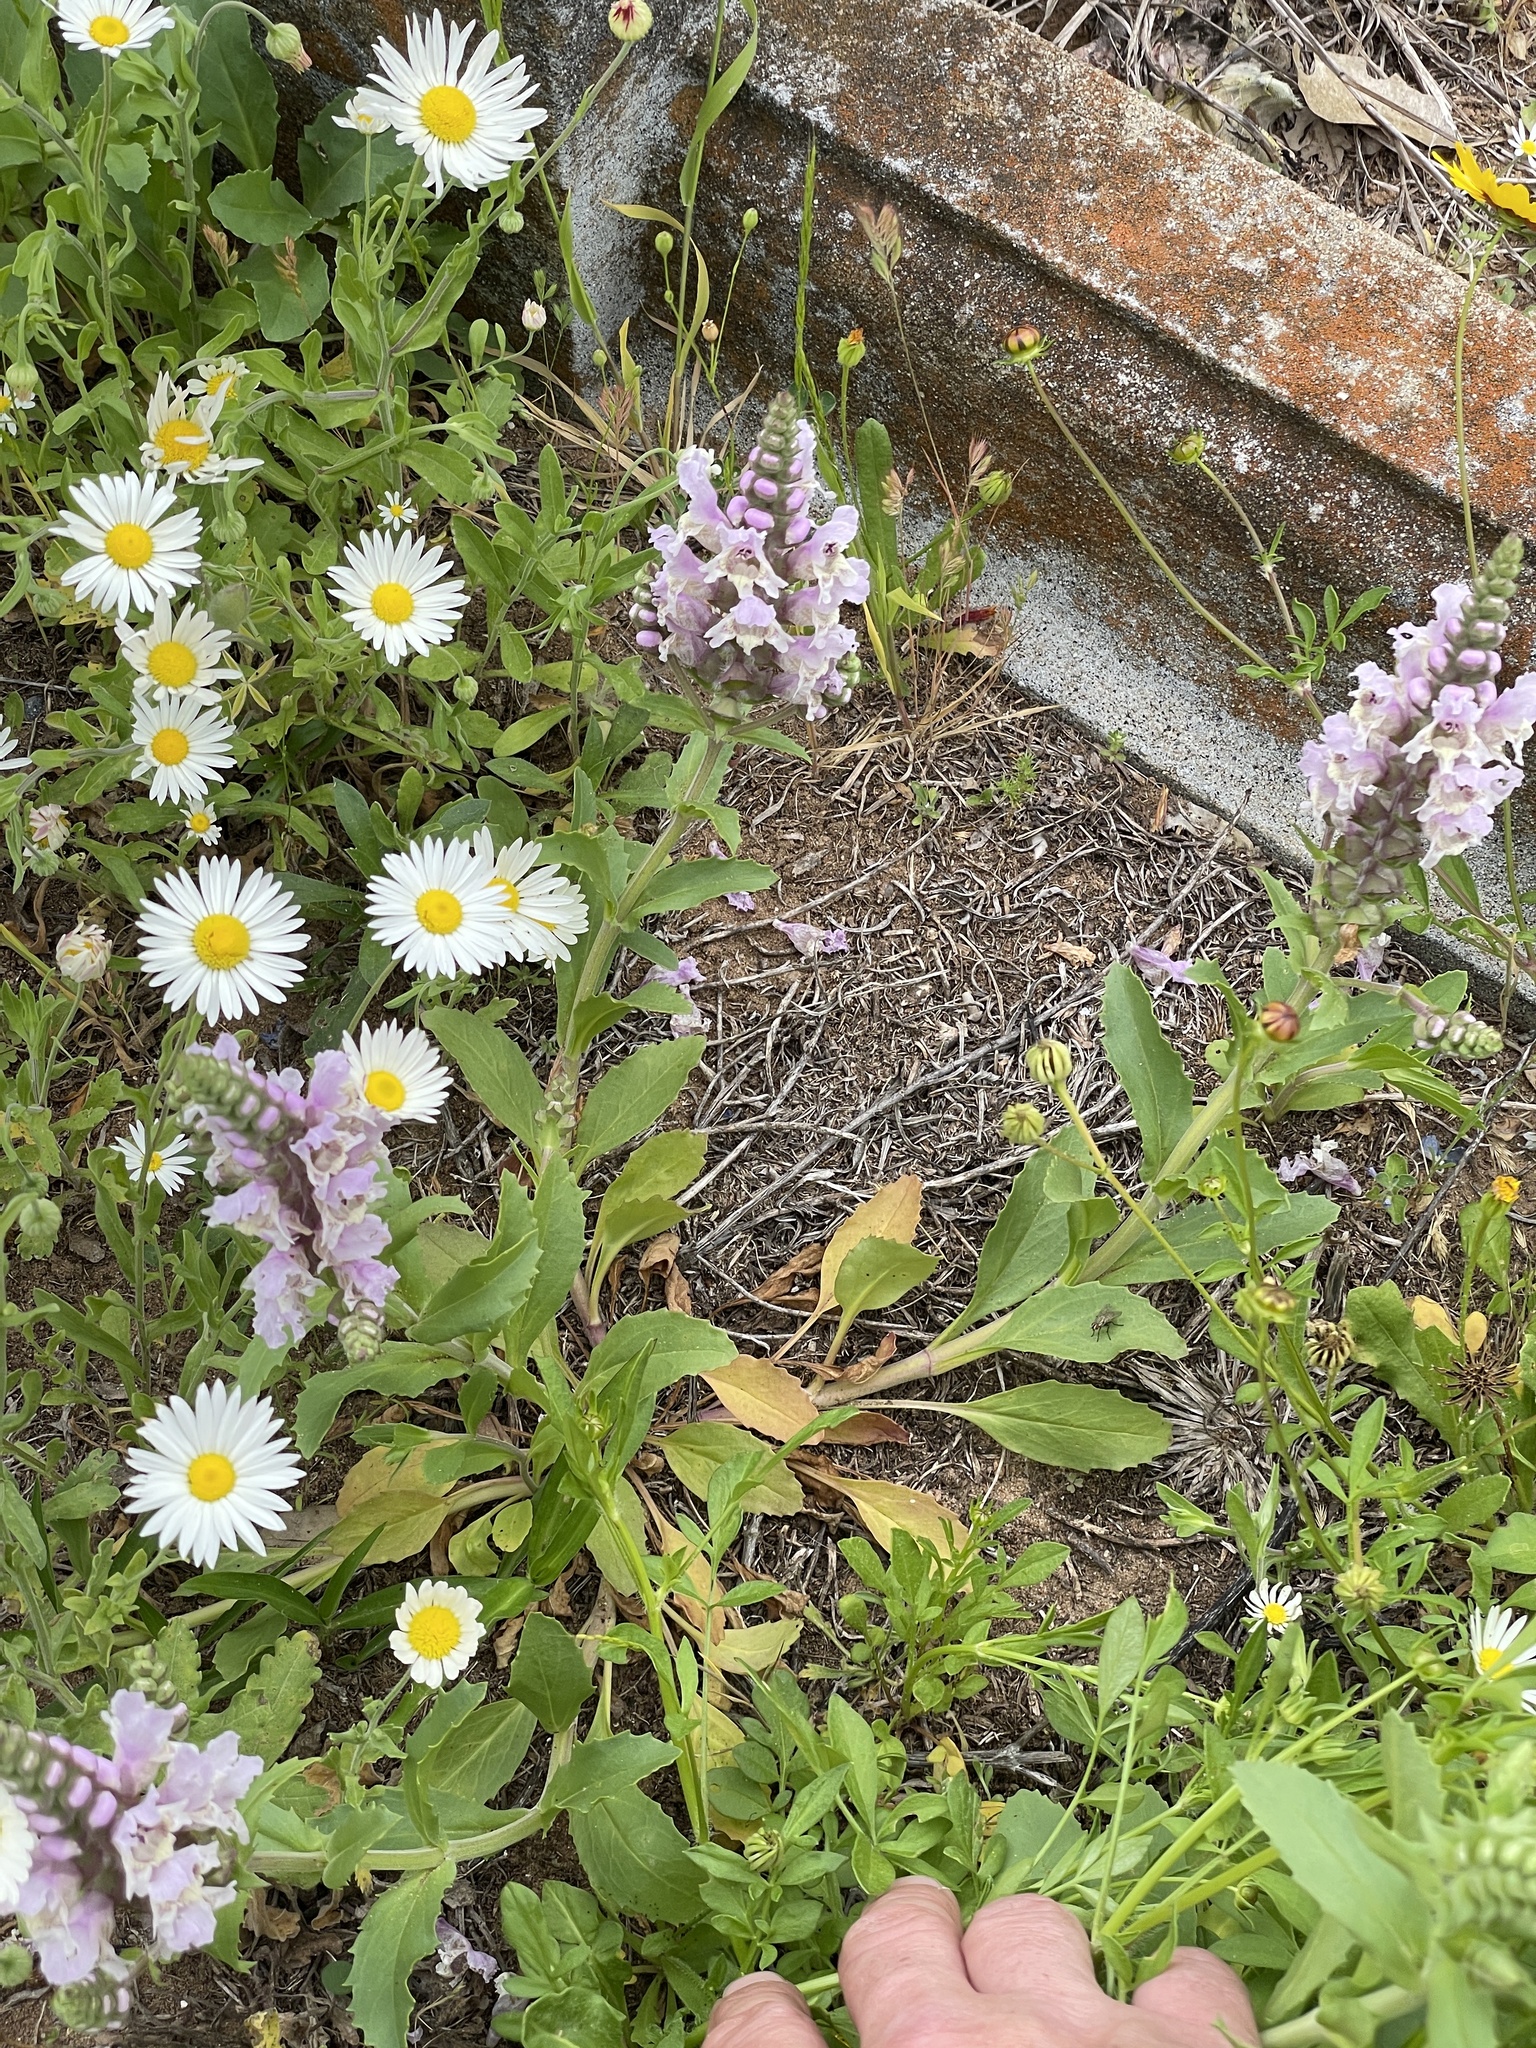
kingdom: Plantae
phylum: Tracheophyta
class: Magnoliopsida
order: Lamiales
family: Lamiaceae
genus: Brazoria
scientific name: Brazoria truncata
